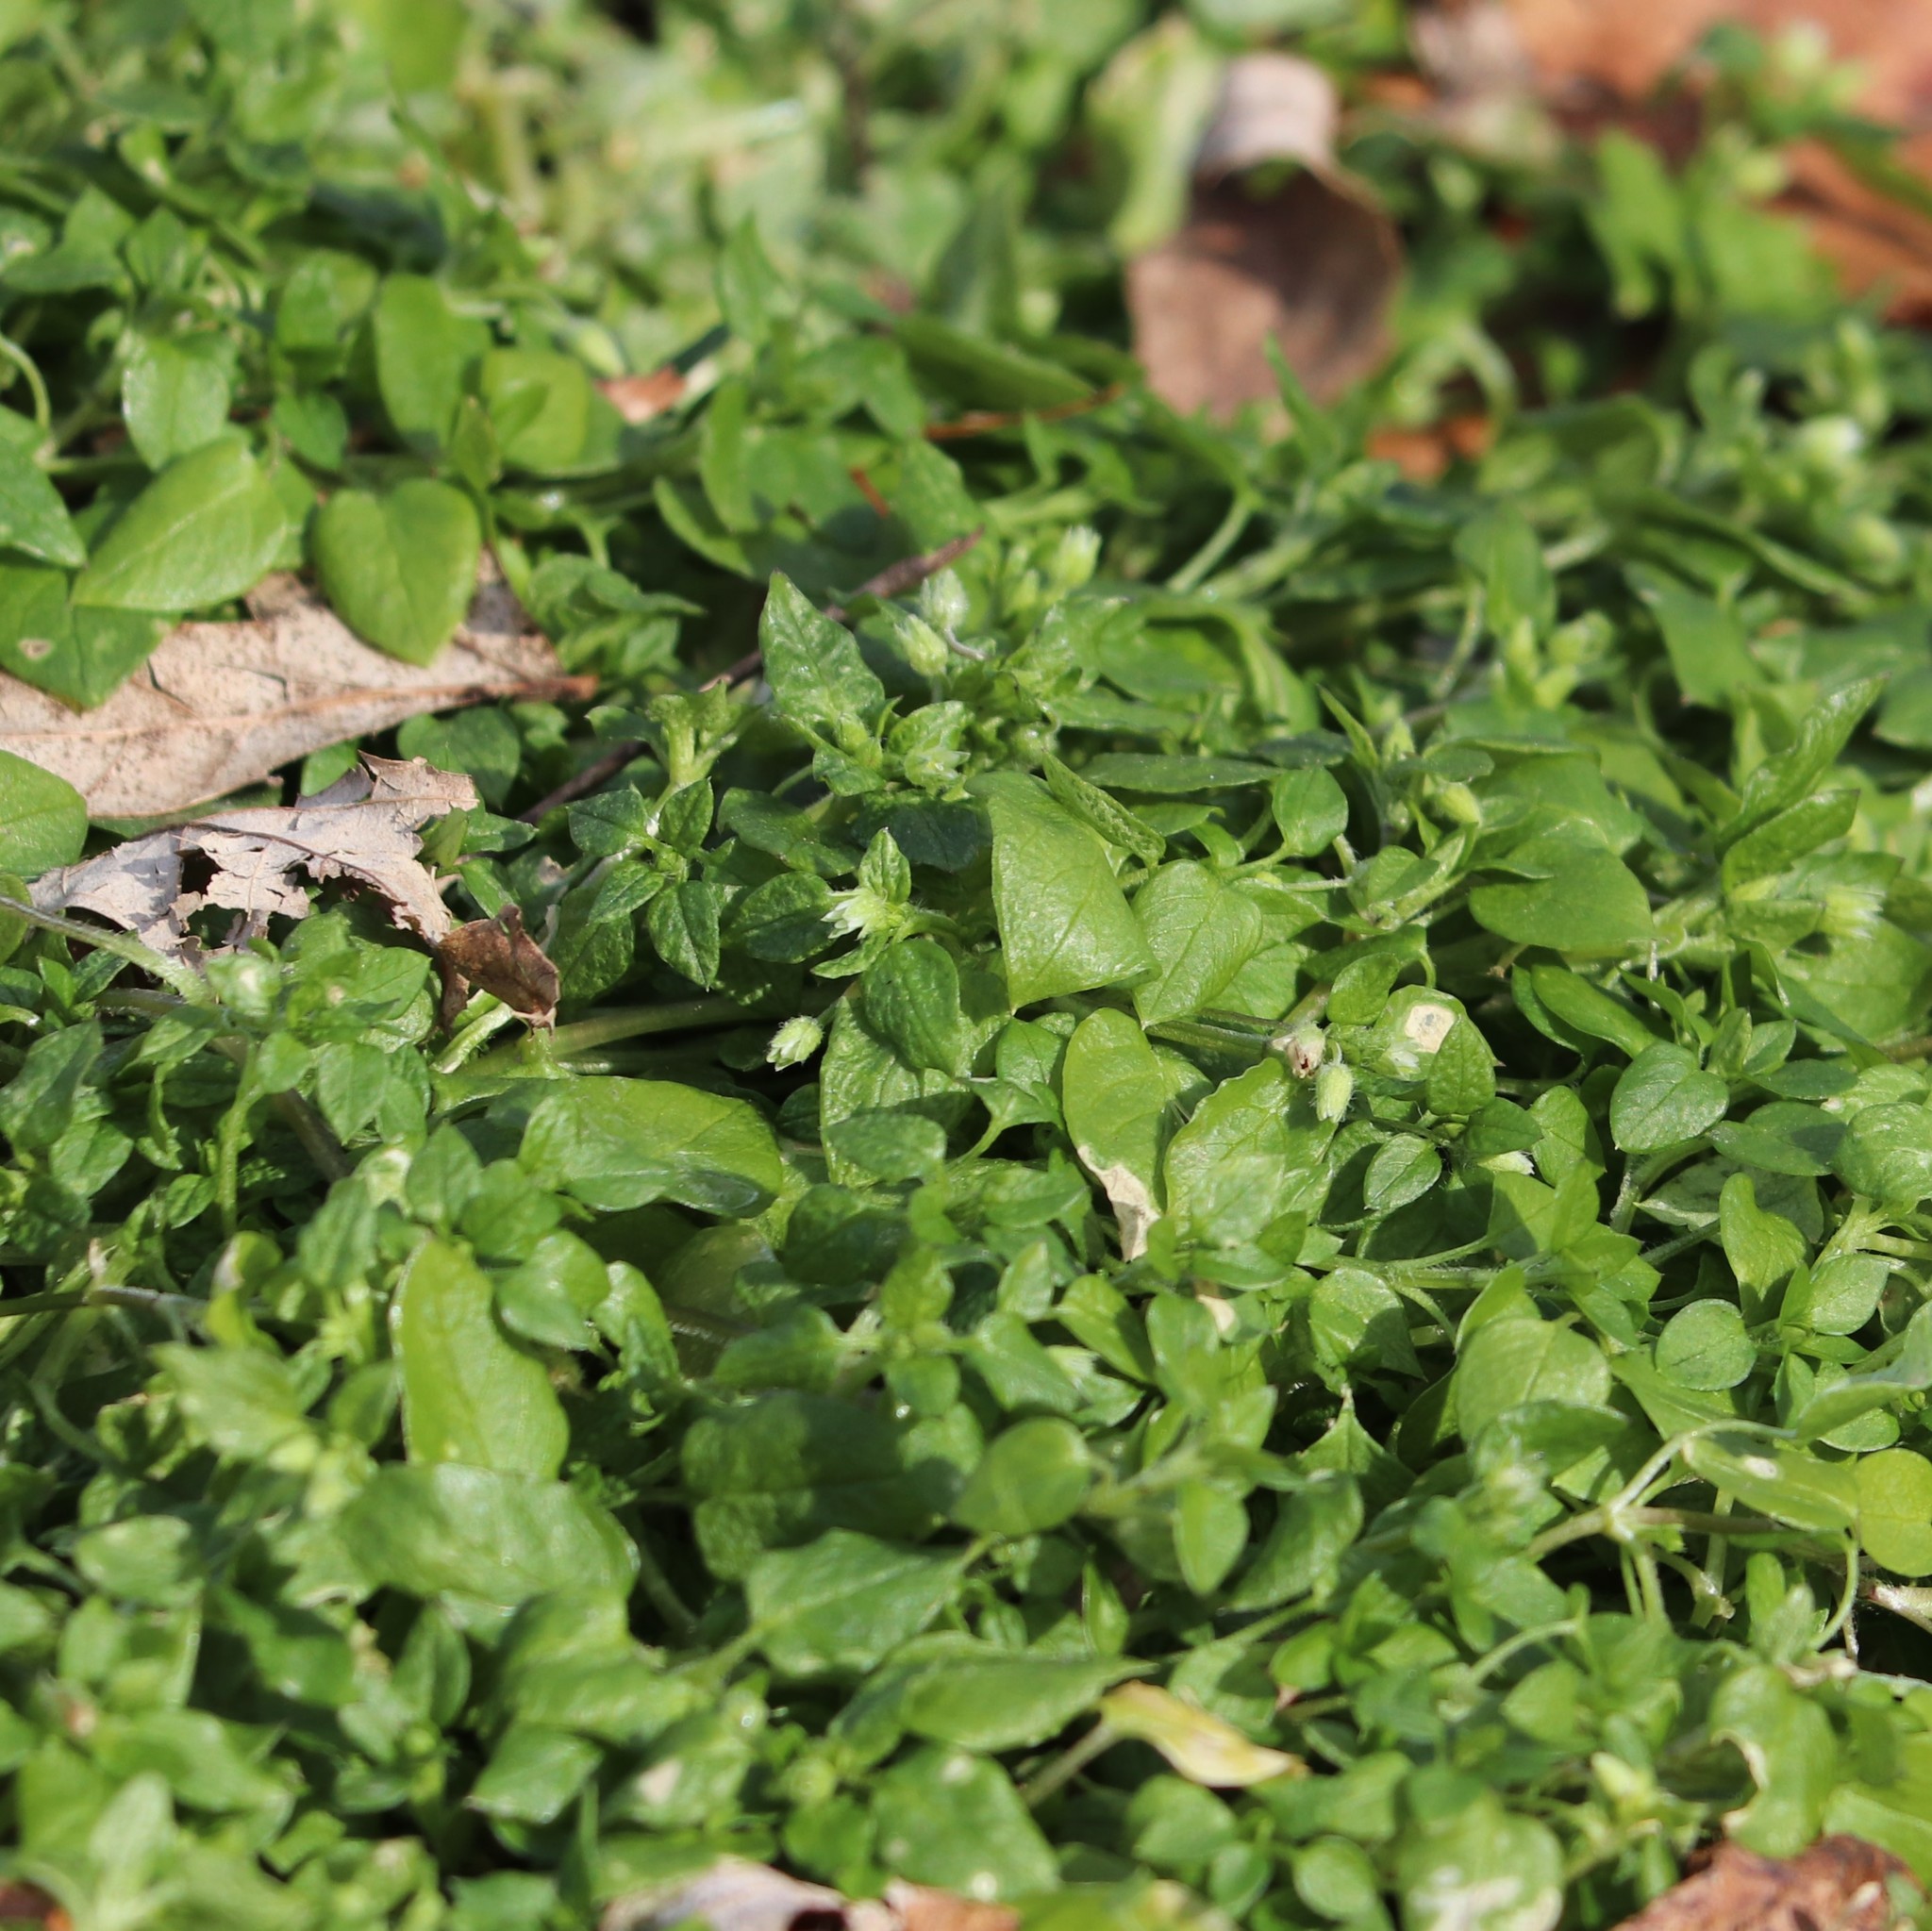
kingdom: Plantae
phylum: Tracheophyta
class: Magnoliopsida
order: Caryophyllales
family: Caryophyllaceae
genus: Stellaria
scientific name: Stellaria media
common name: Common chickweed
